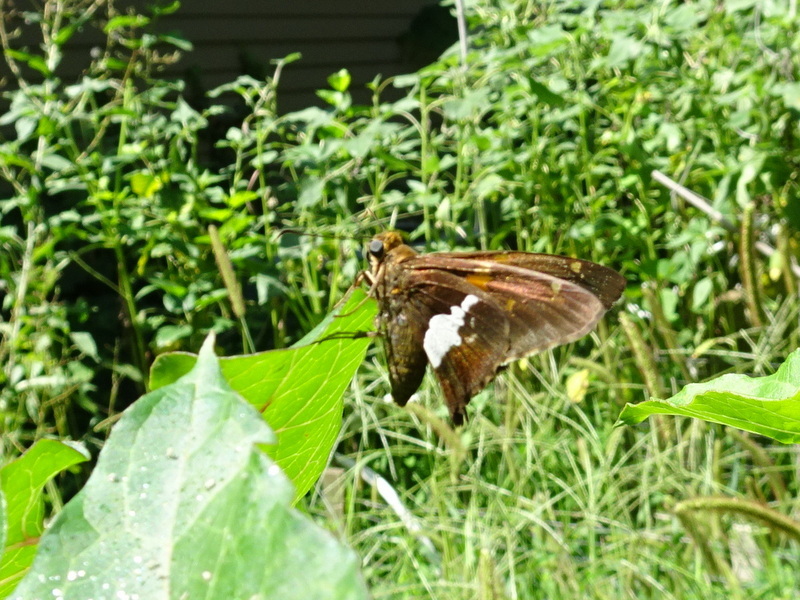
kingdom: Animalia
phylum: Arthropoda
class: Insecta
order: Lepidoptera
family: Hesperiidae
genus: Epargyreus
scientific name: Epargyreus clarus
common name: Silver-spotted skipper
